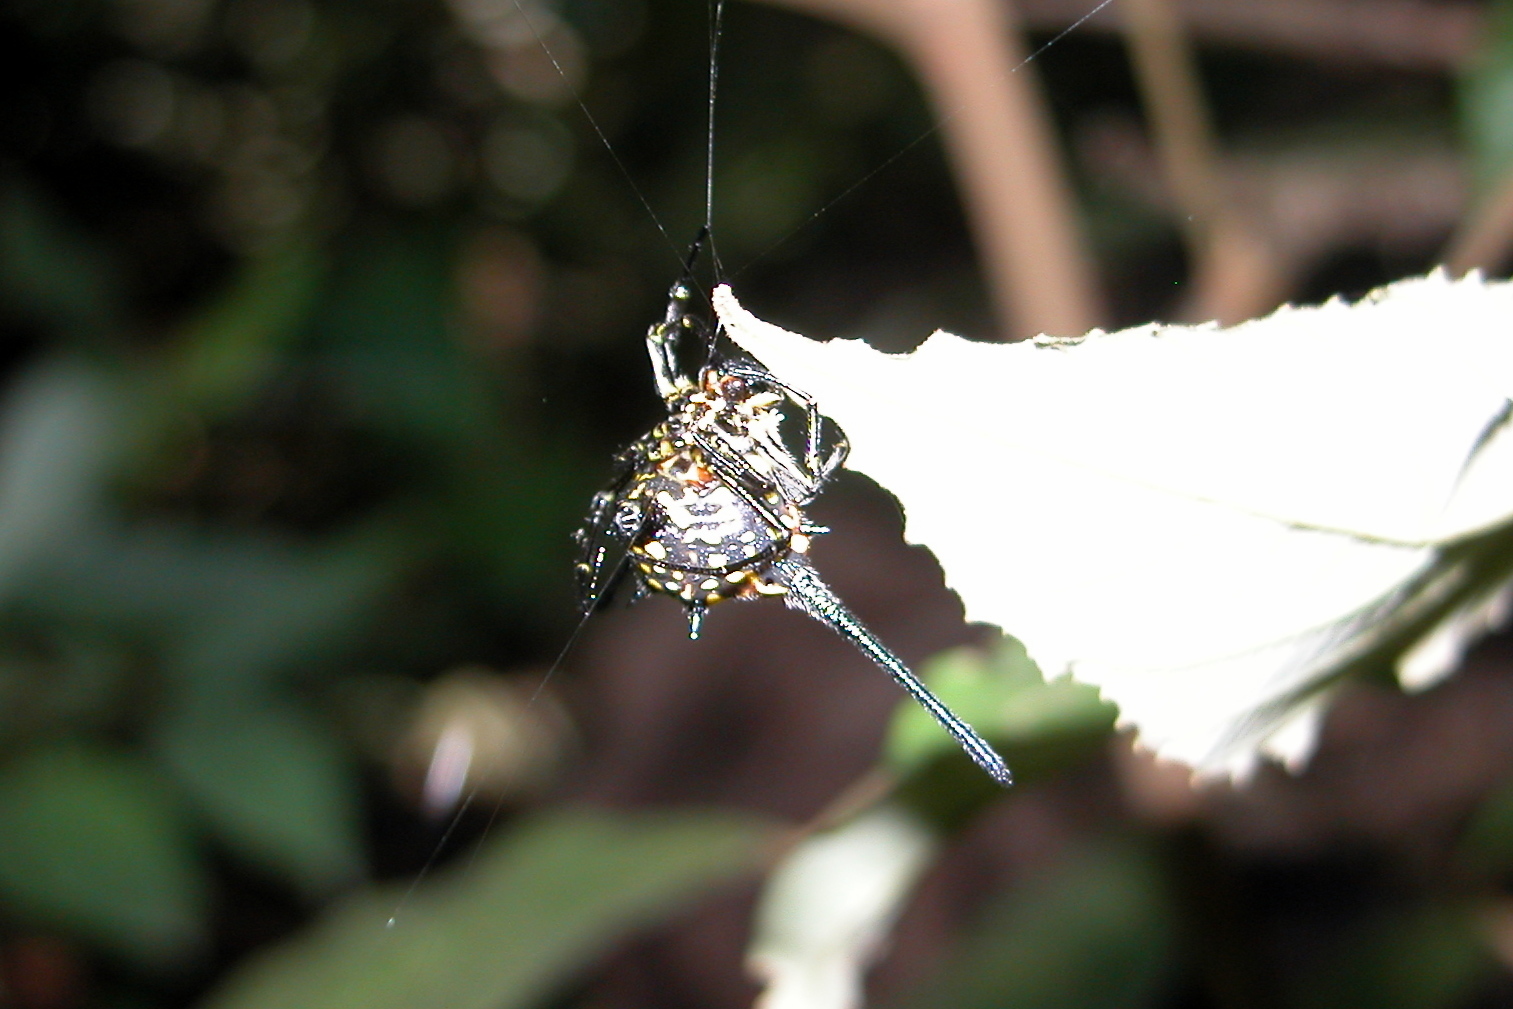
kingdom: Animalia
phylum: Arthropoda
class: Arachnida
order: Araneae
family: Araneidae
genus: Gasteracantha
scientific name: Gasteracantha dalyi
